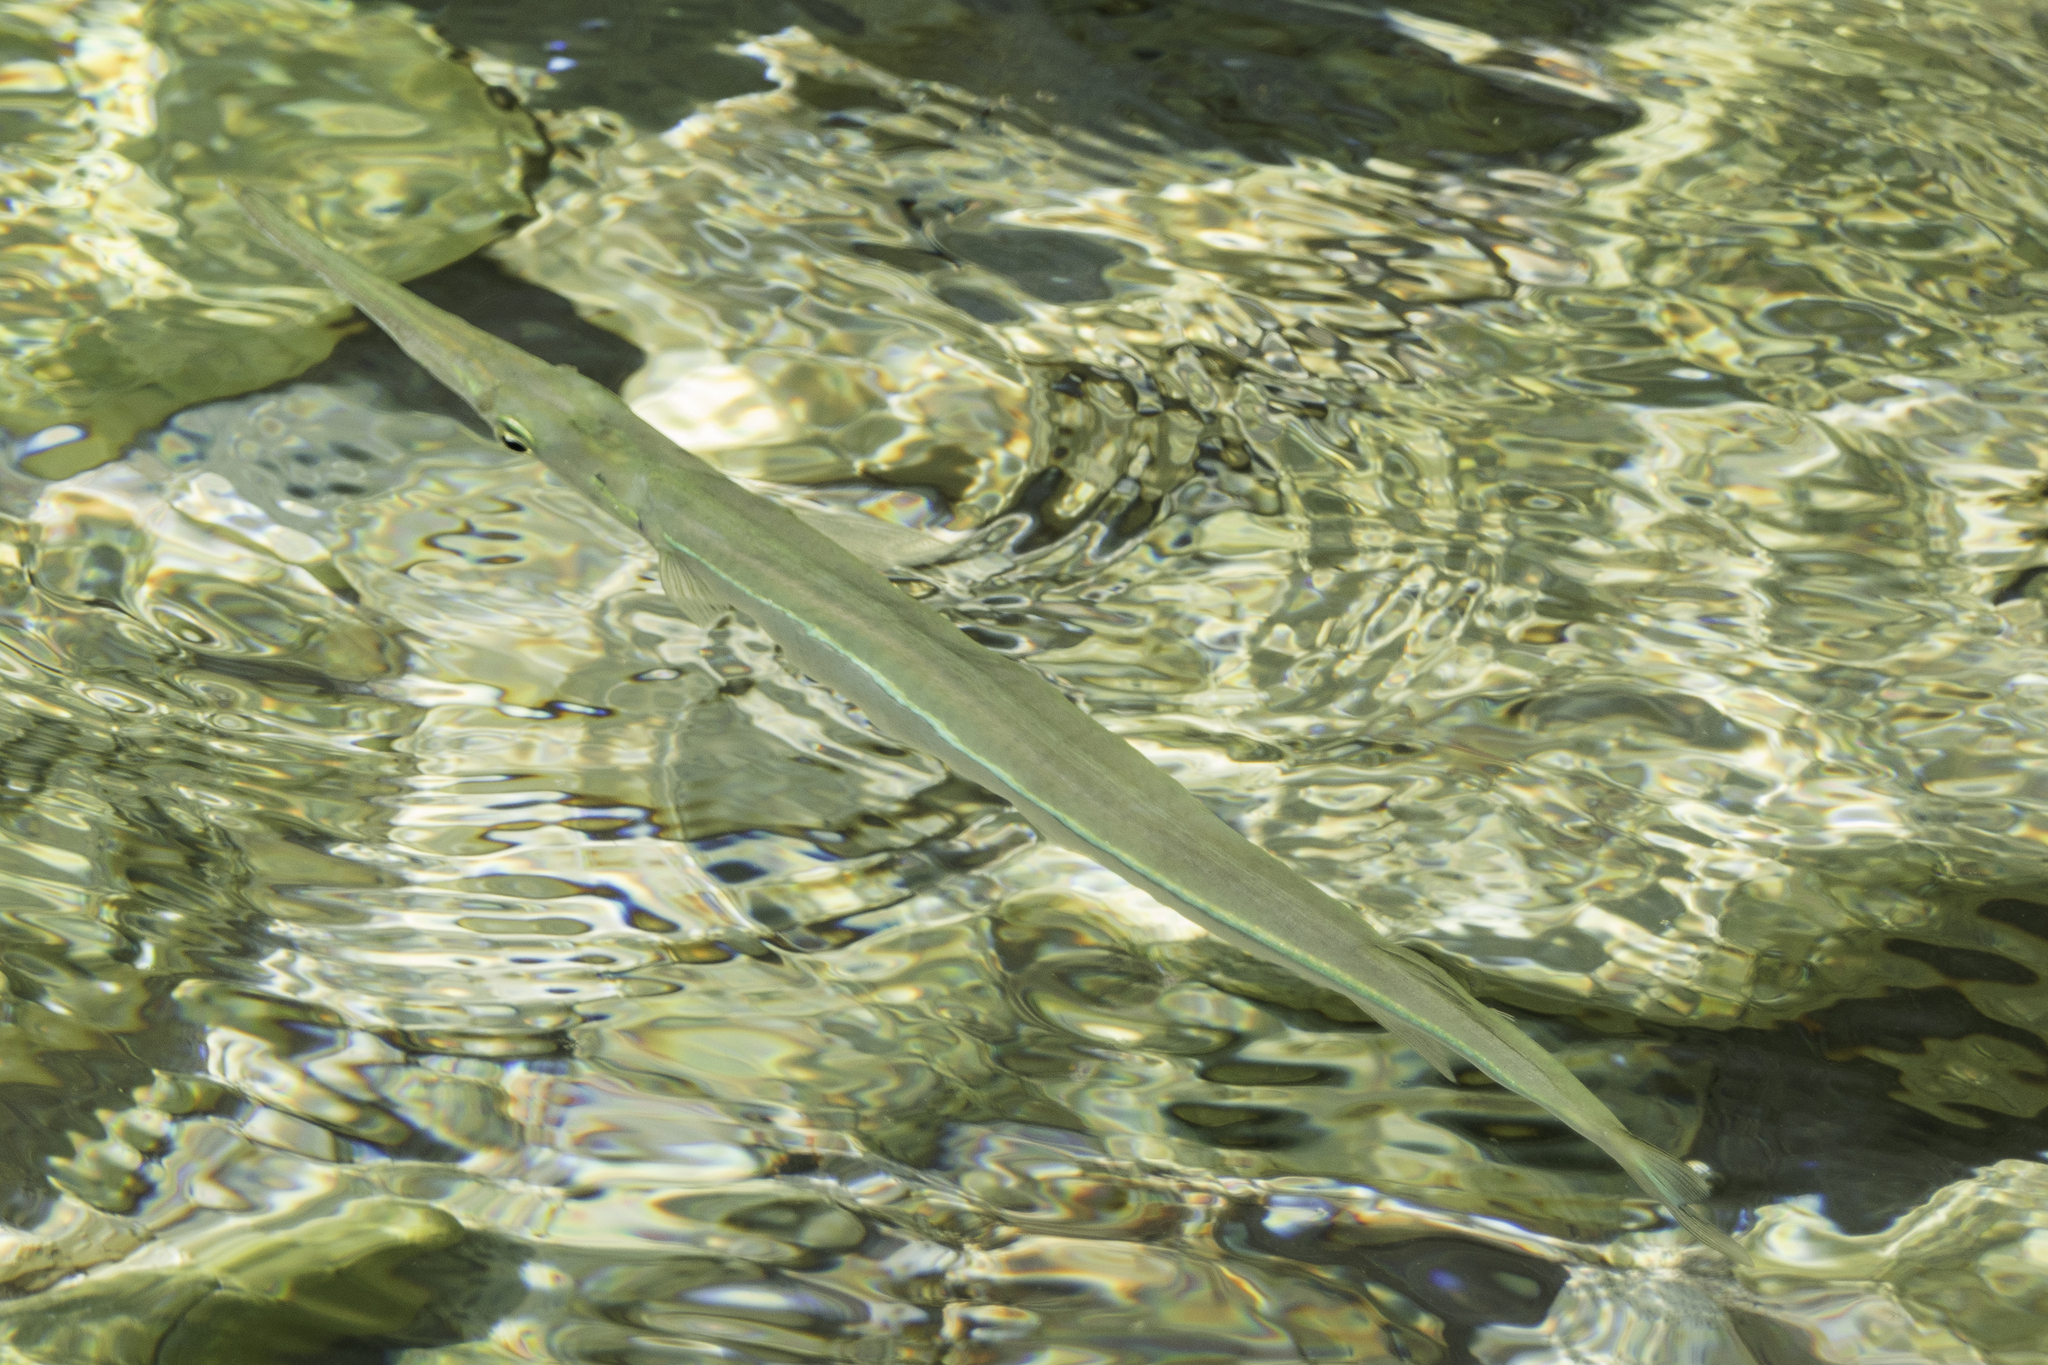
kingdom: Animalia
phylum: Chordata
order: Beloniformes
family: Belonidae
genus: Tylosurus
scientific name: Tylosurus crocodilus
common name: Houndfish
